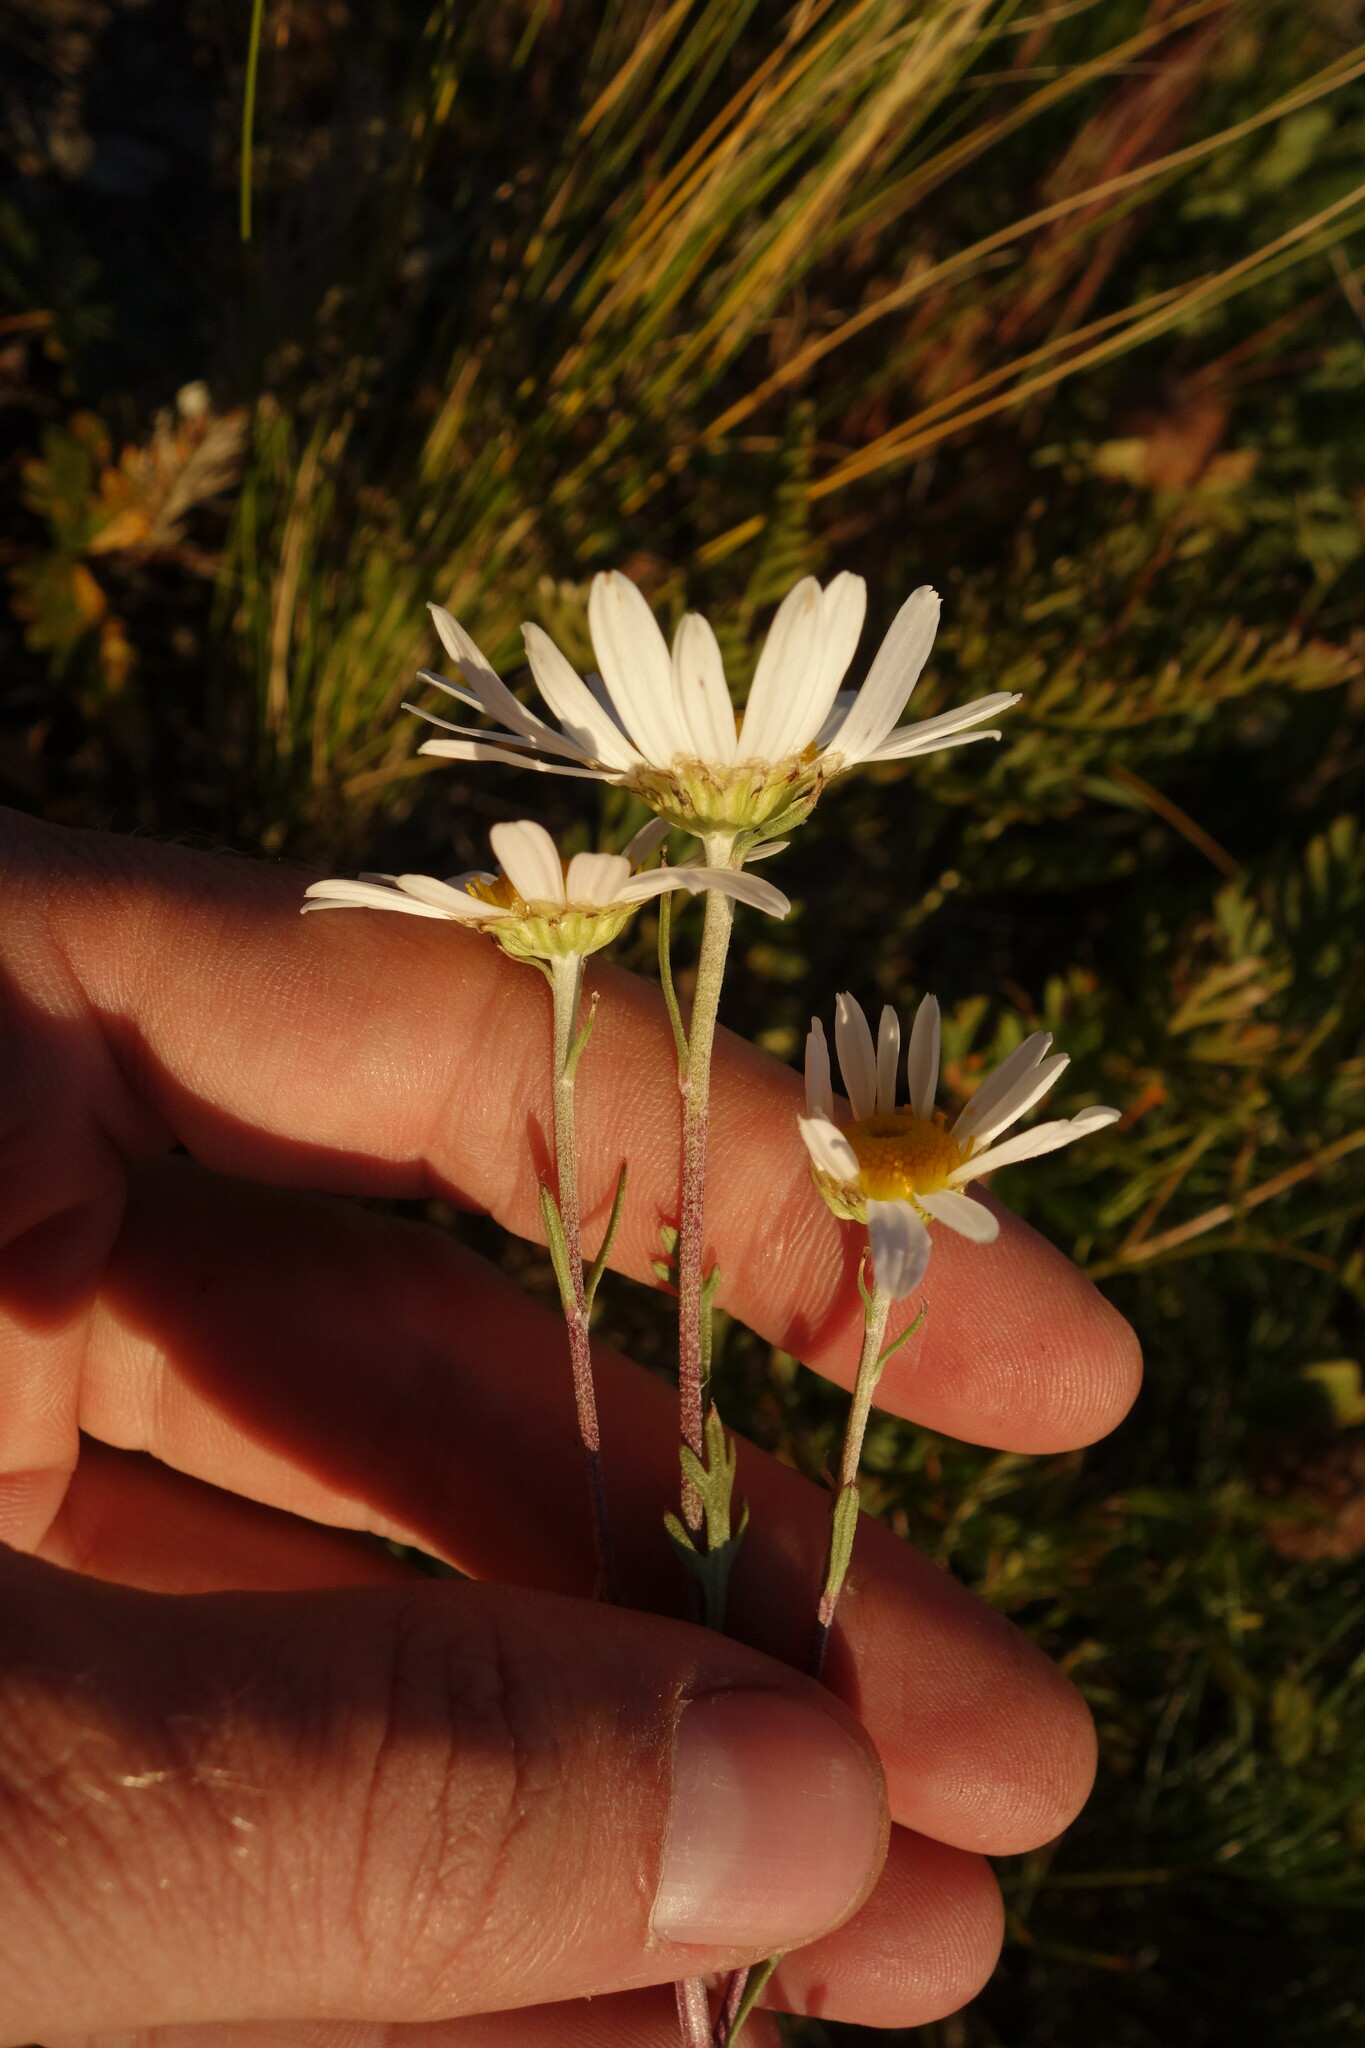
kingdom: Plantae
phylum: Tracheophyta
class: Magnoliopsida
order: Asterales
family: Asteraceae
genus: Chrysanthemum
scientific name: Chrysanthemum zawadzkii
